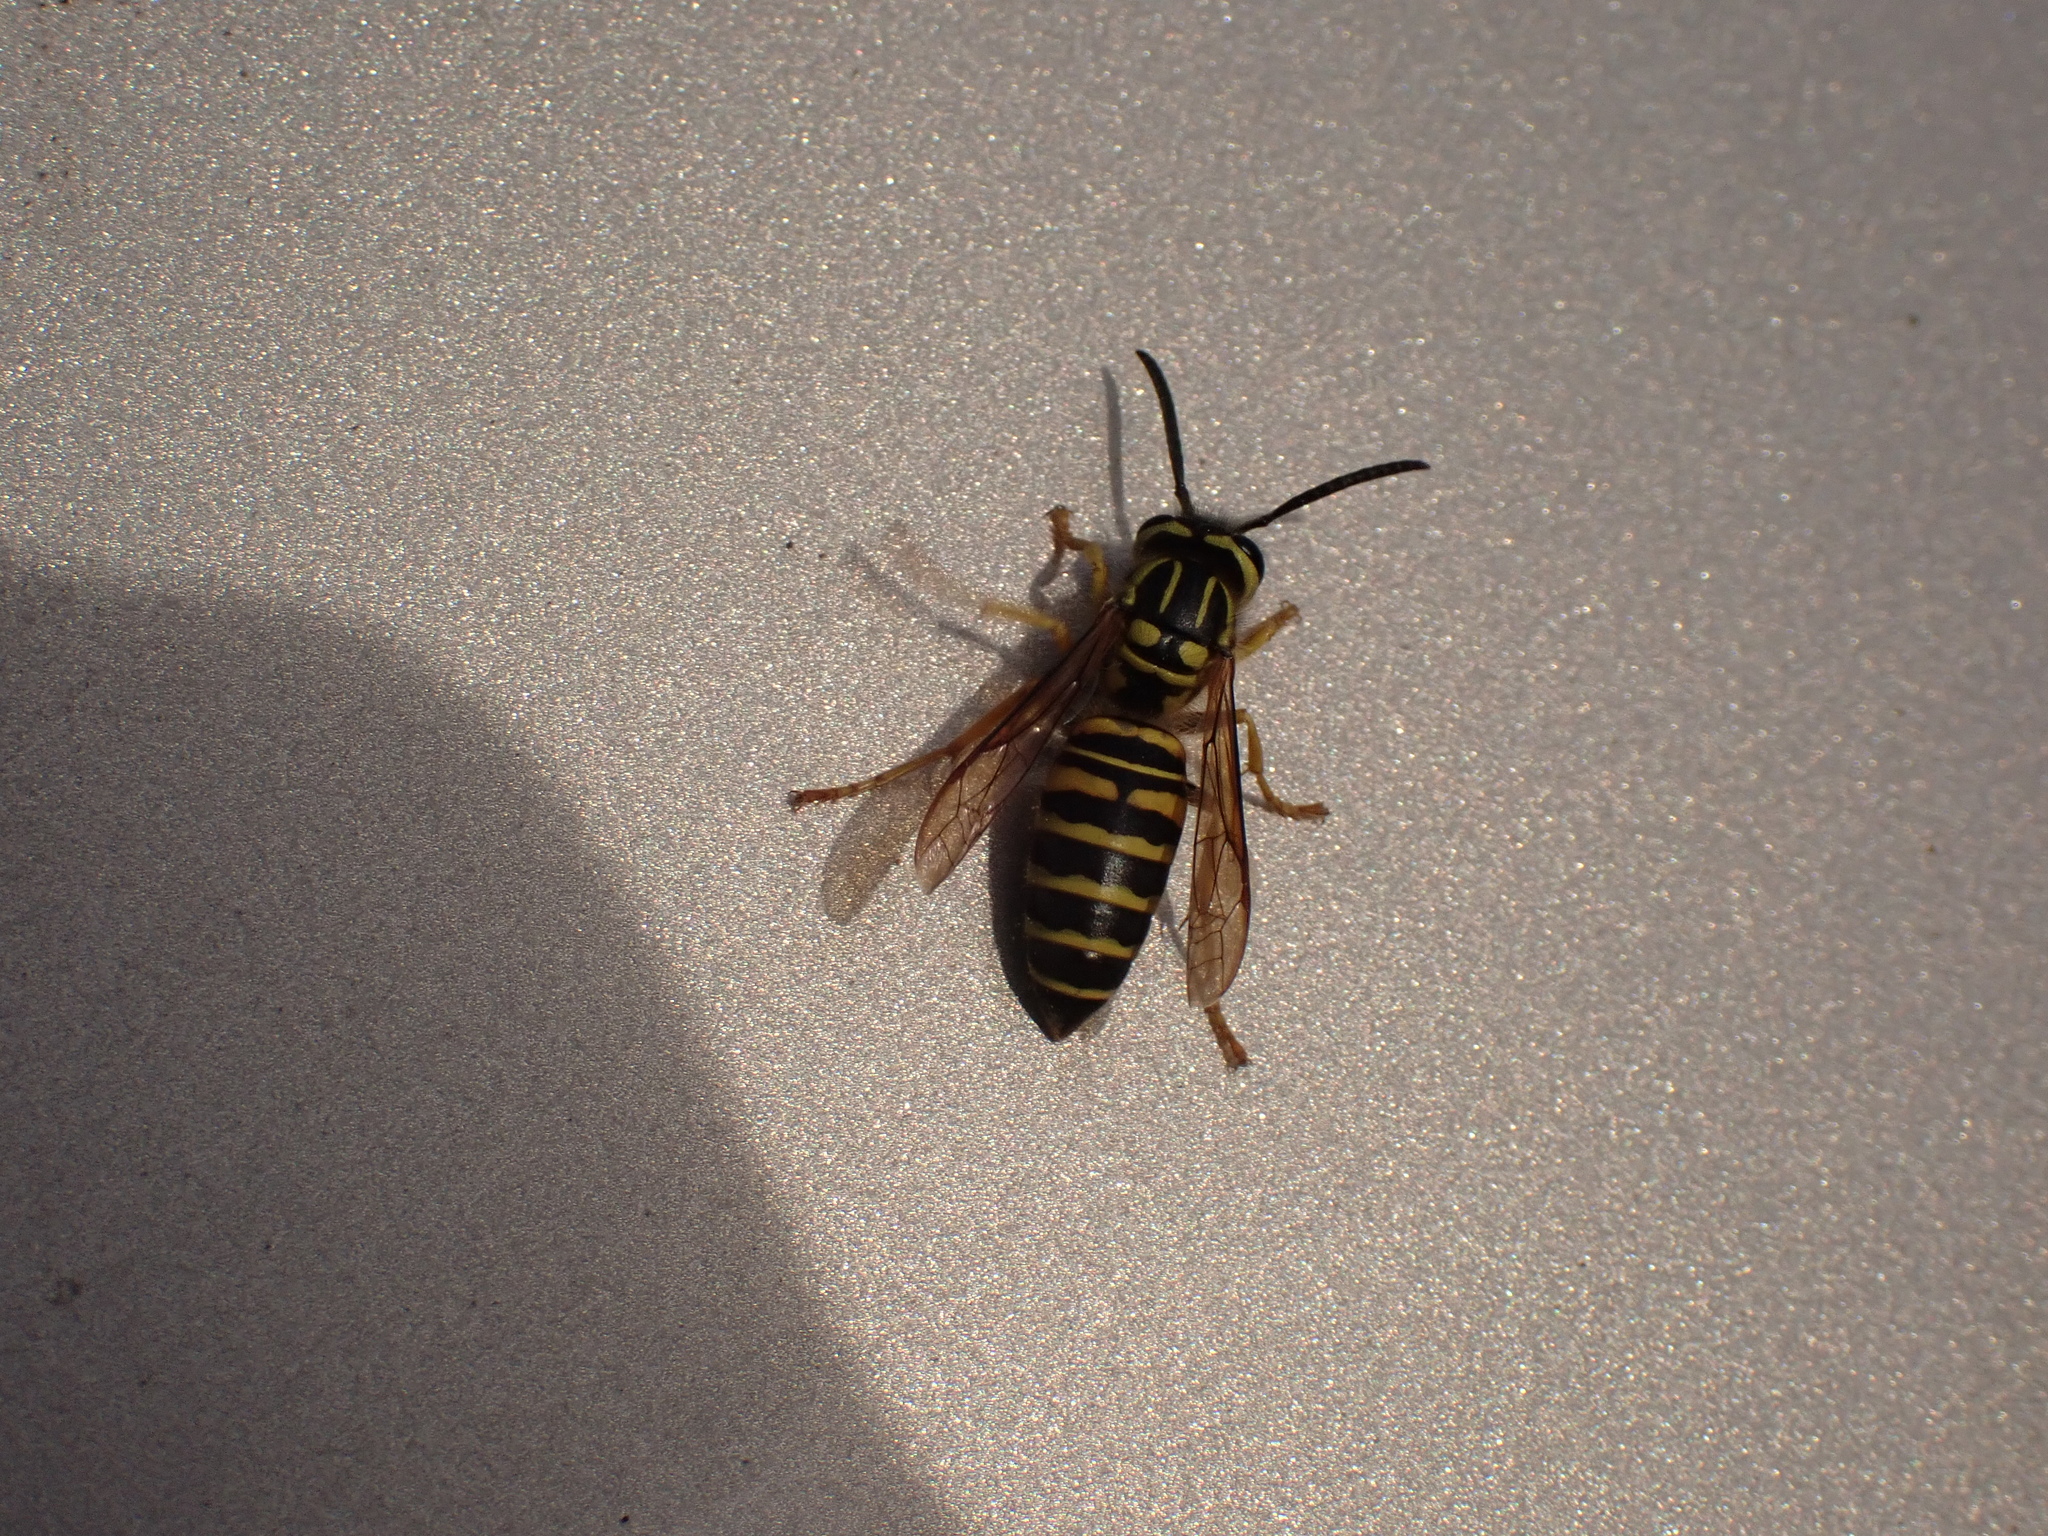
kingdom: Animalia
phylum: Arthropoda
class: Insecta
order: Hymenoptera
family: Vespidae
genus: Vespula
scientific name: Vespula squamosa
